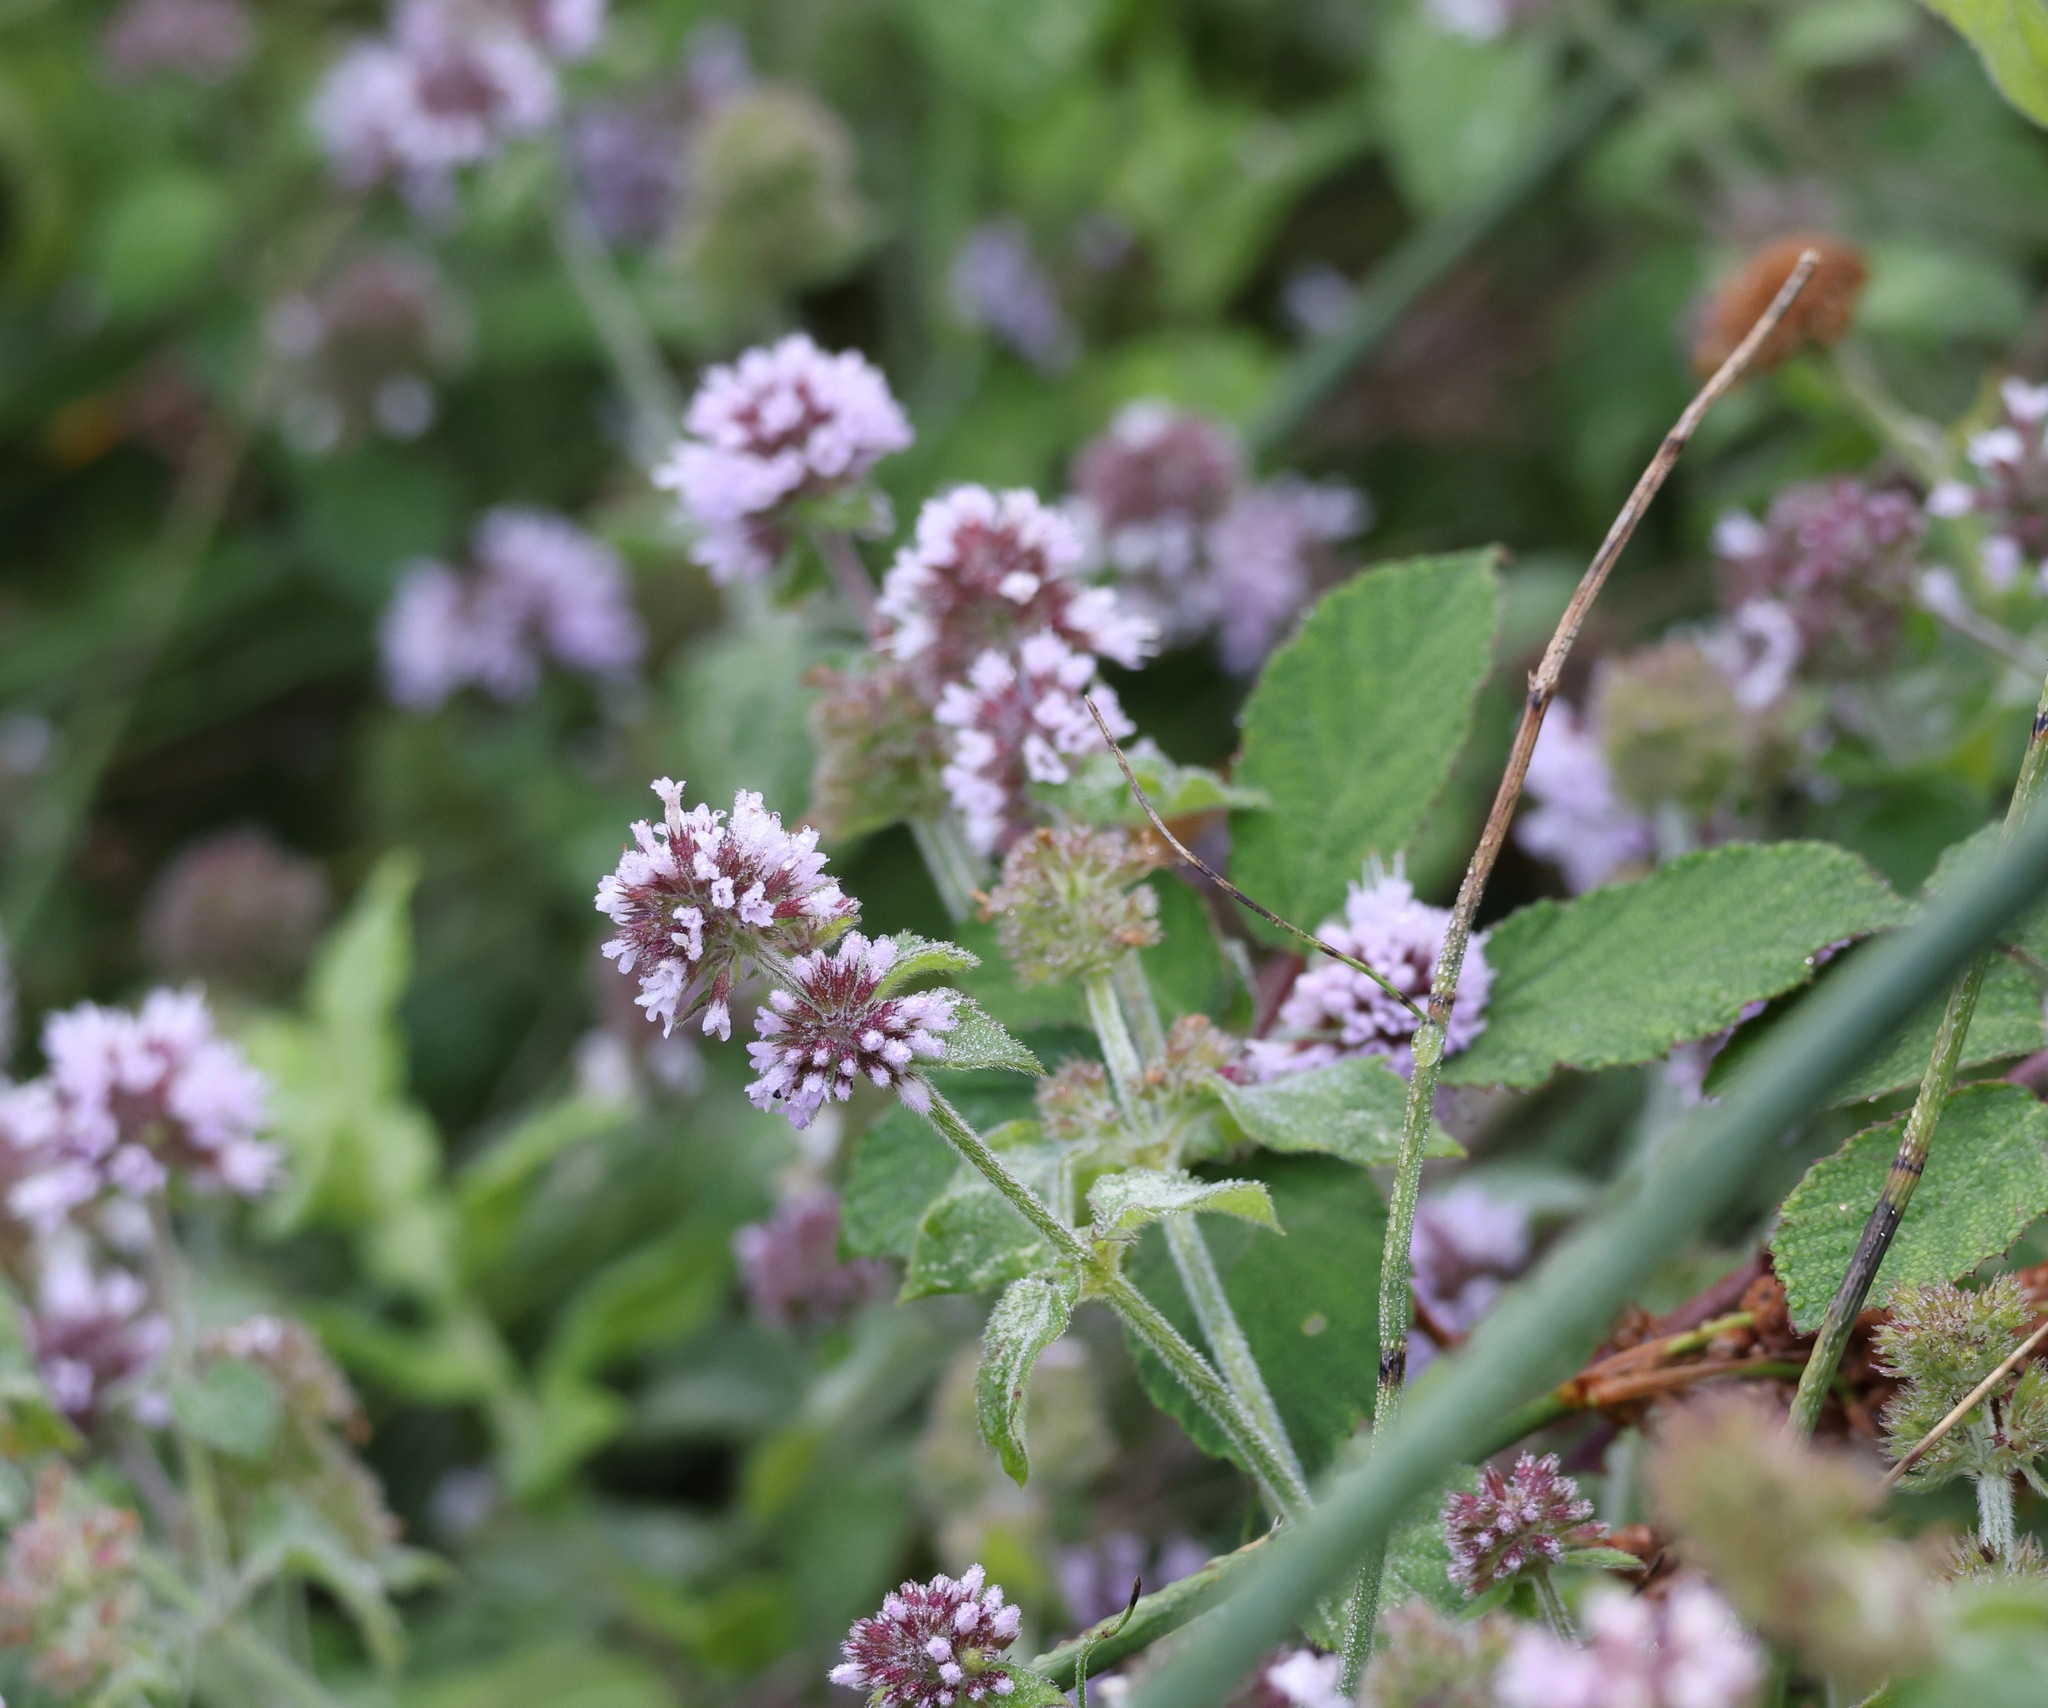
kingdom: Plantae
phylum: Tracheophyta
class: Magnoliopsida
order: Lamiales
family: Lamiaceae
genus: Mentha
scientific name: Mentha aquatica
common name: Water mint
